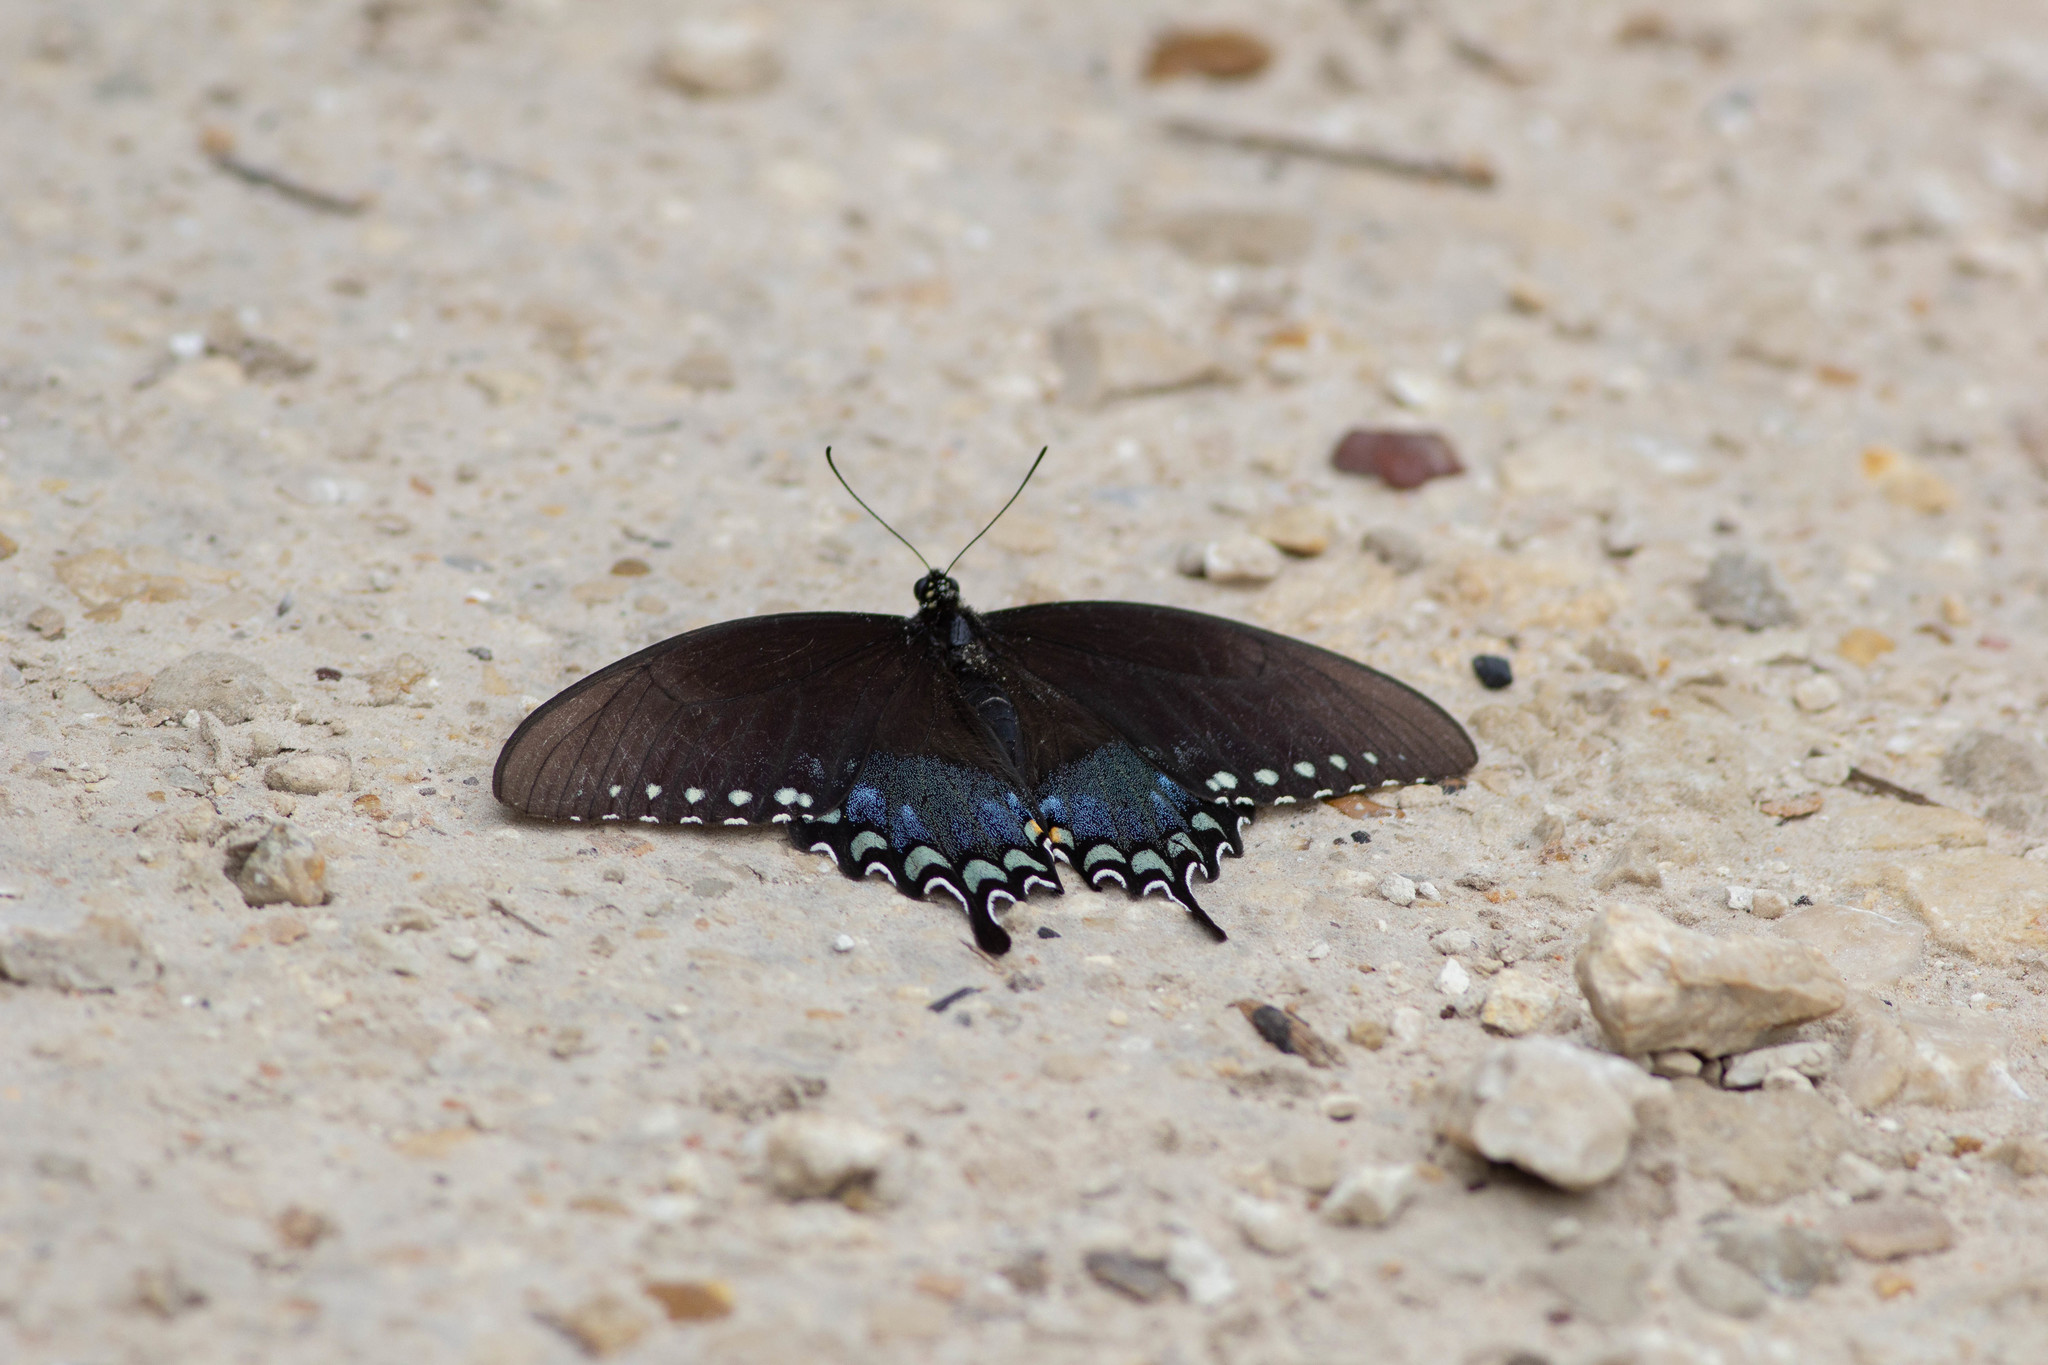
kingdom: Animalia
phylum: Arthropoda
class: Insecta
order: Lepidoptera
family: Papilionidae
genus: Papilio
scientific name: Papilio troilus
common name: Spicebush swallowtail
